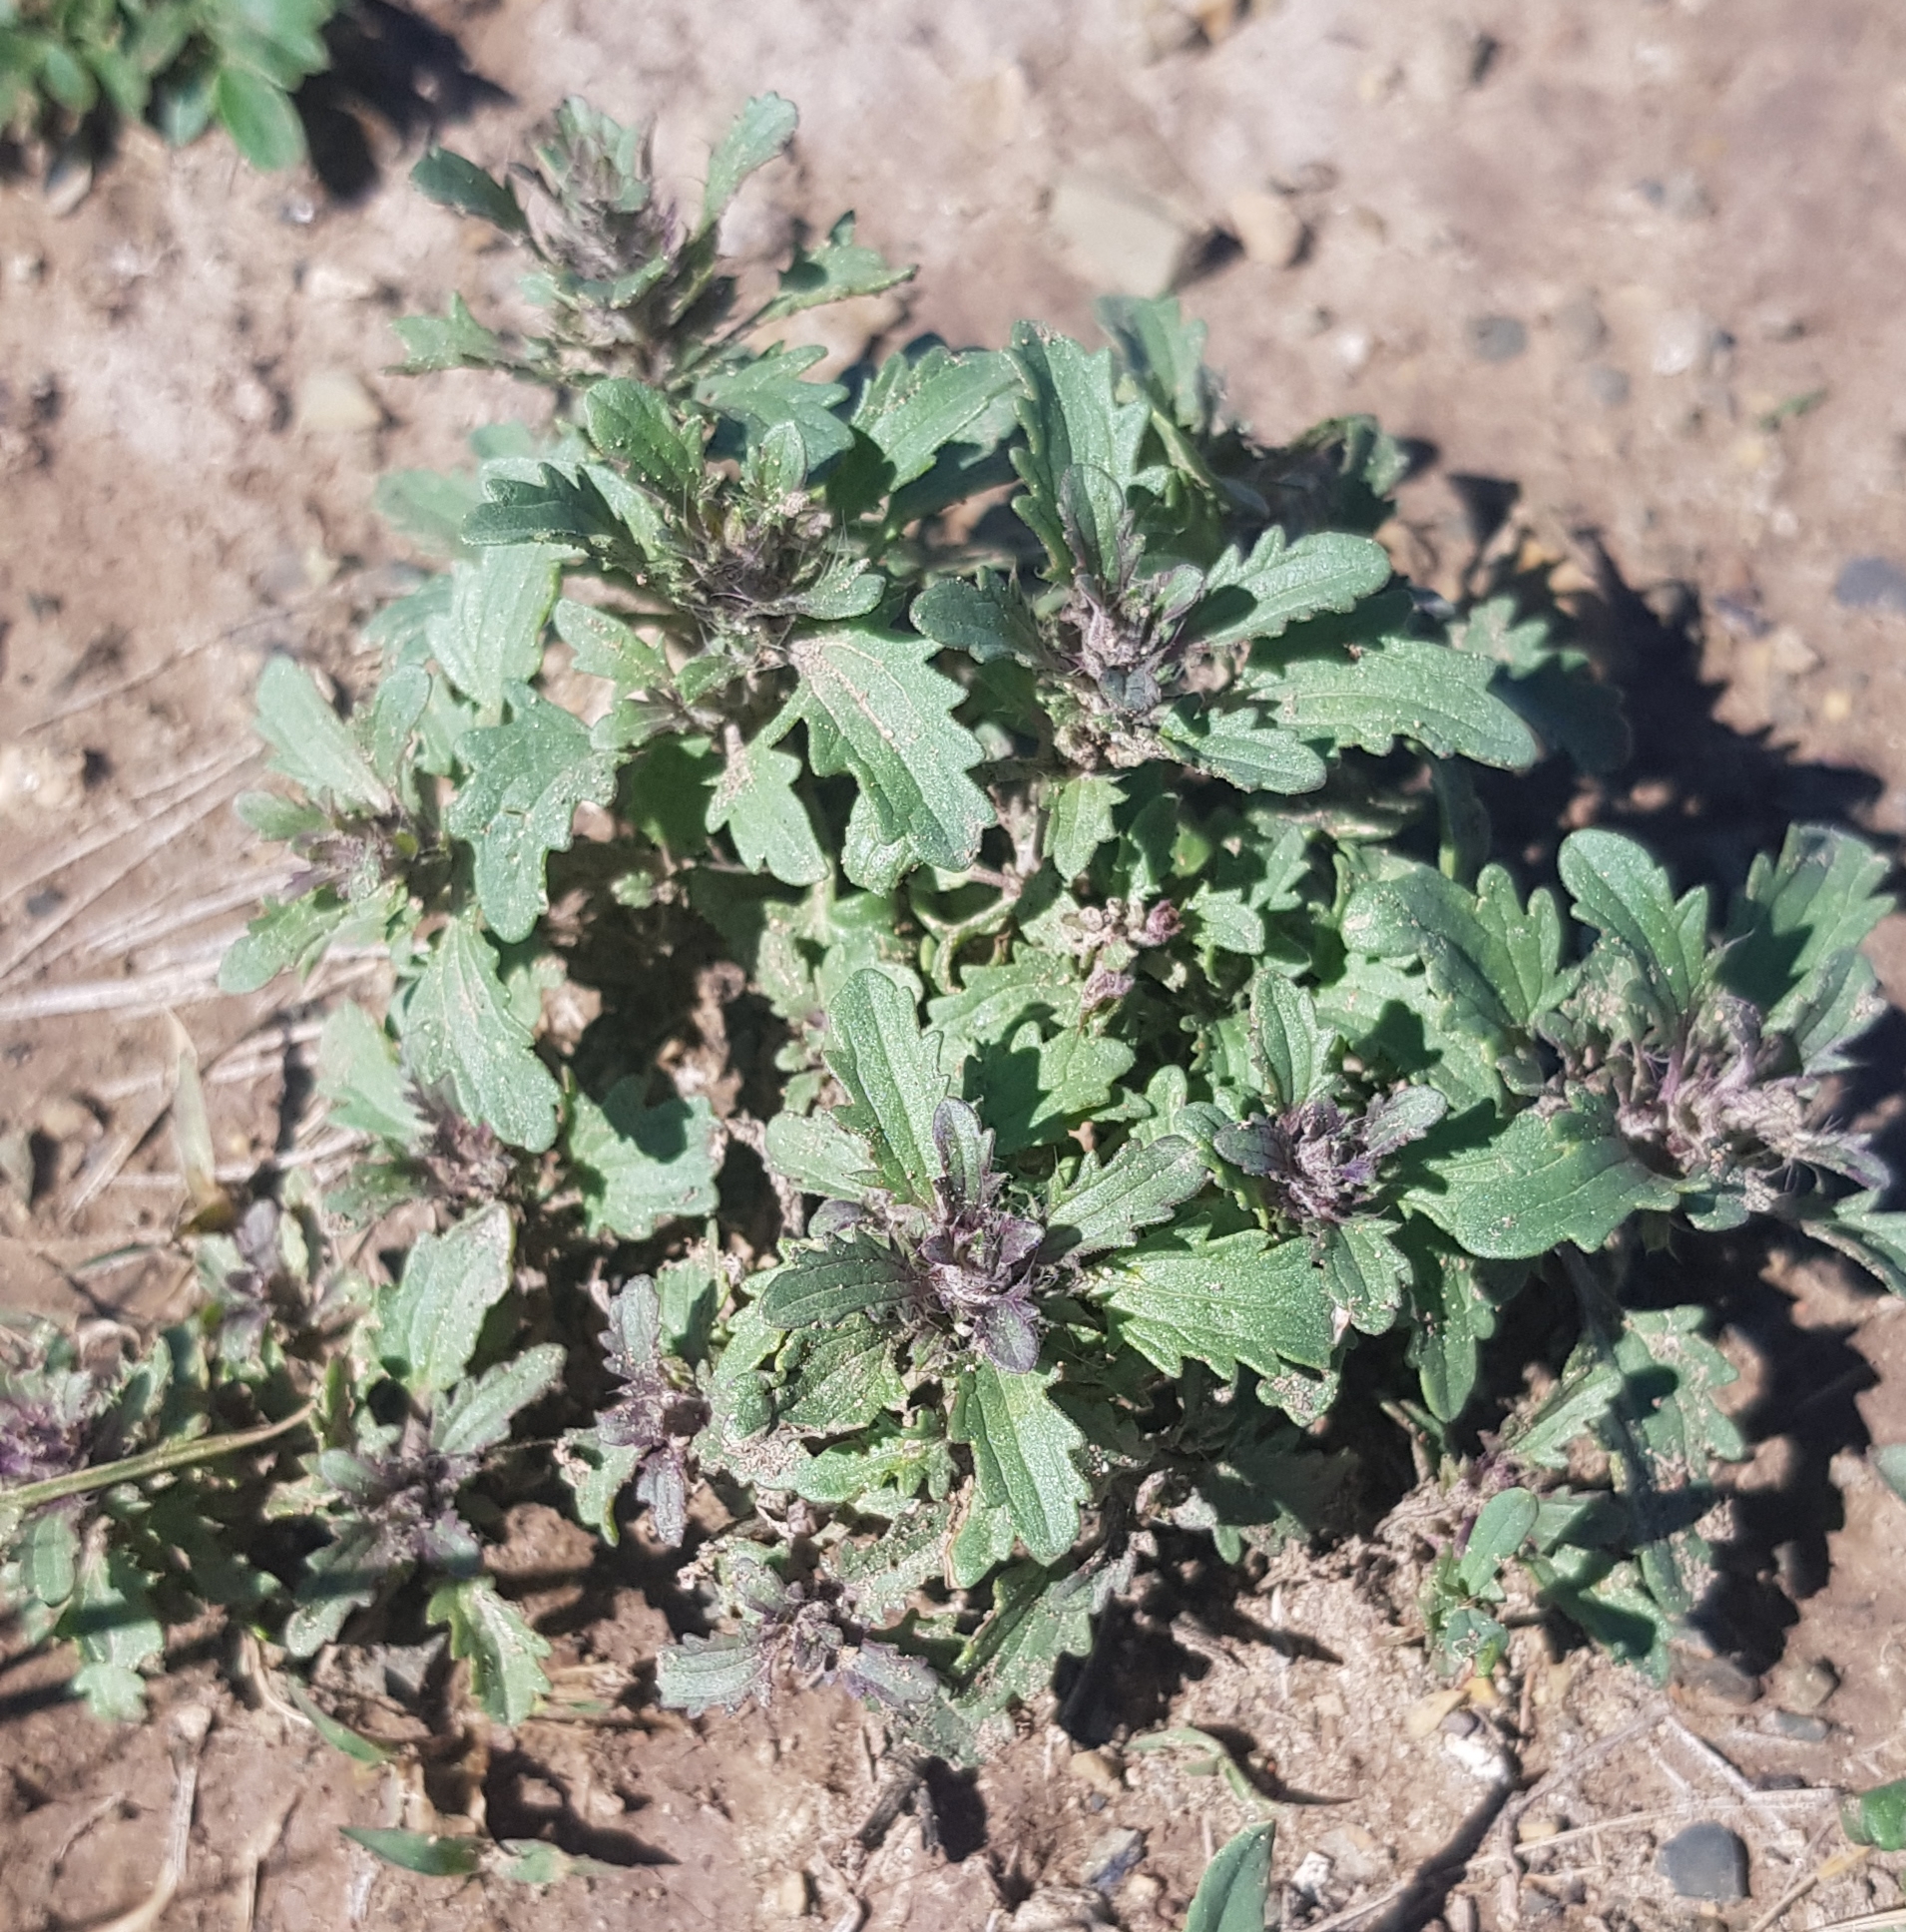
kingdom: Plantae
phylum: Tracheophyta
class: Magnoliopsida
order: Lamiales
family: Lamiaceae
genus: Dracocephalum
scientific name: Dracocephalum foetidum
